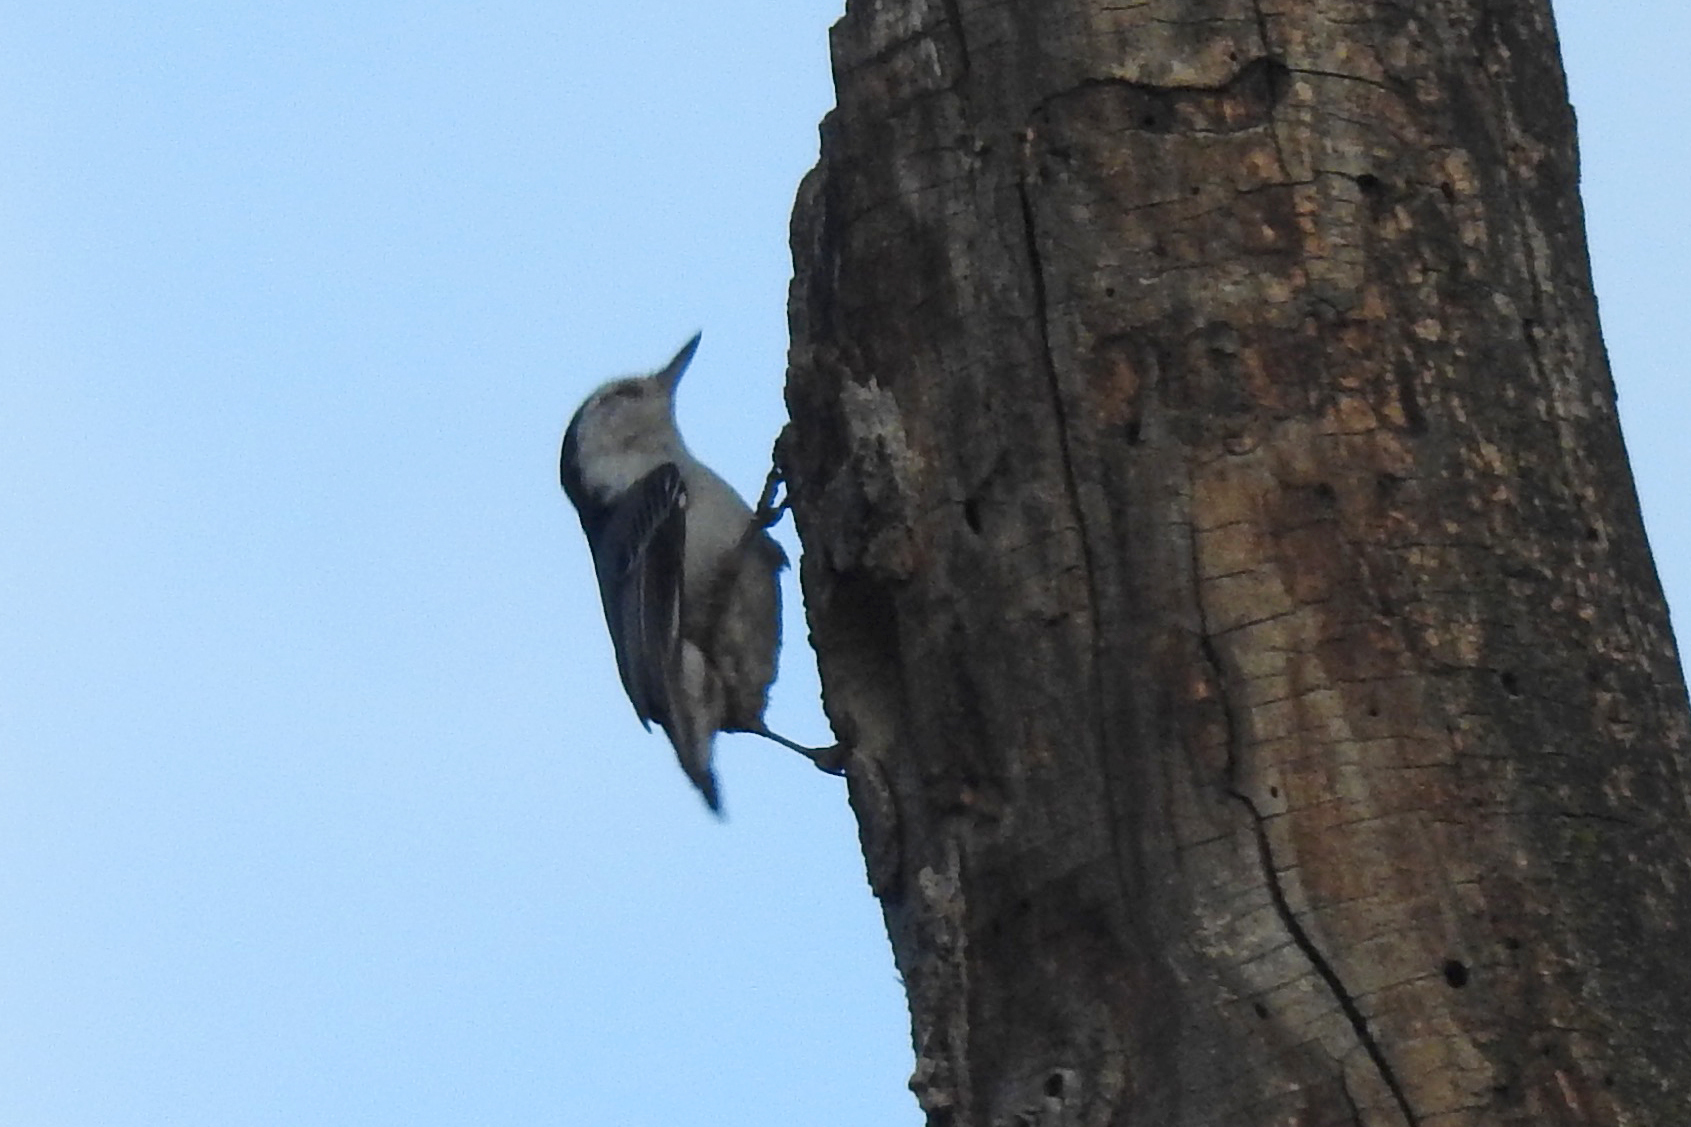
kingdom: Animalia
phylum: Chordata
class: Aves
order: Passeriformes
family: Sittidae
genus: Sitta
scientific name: Sitta carolinensis
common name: White-breasted nuthatch
